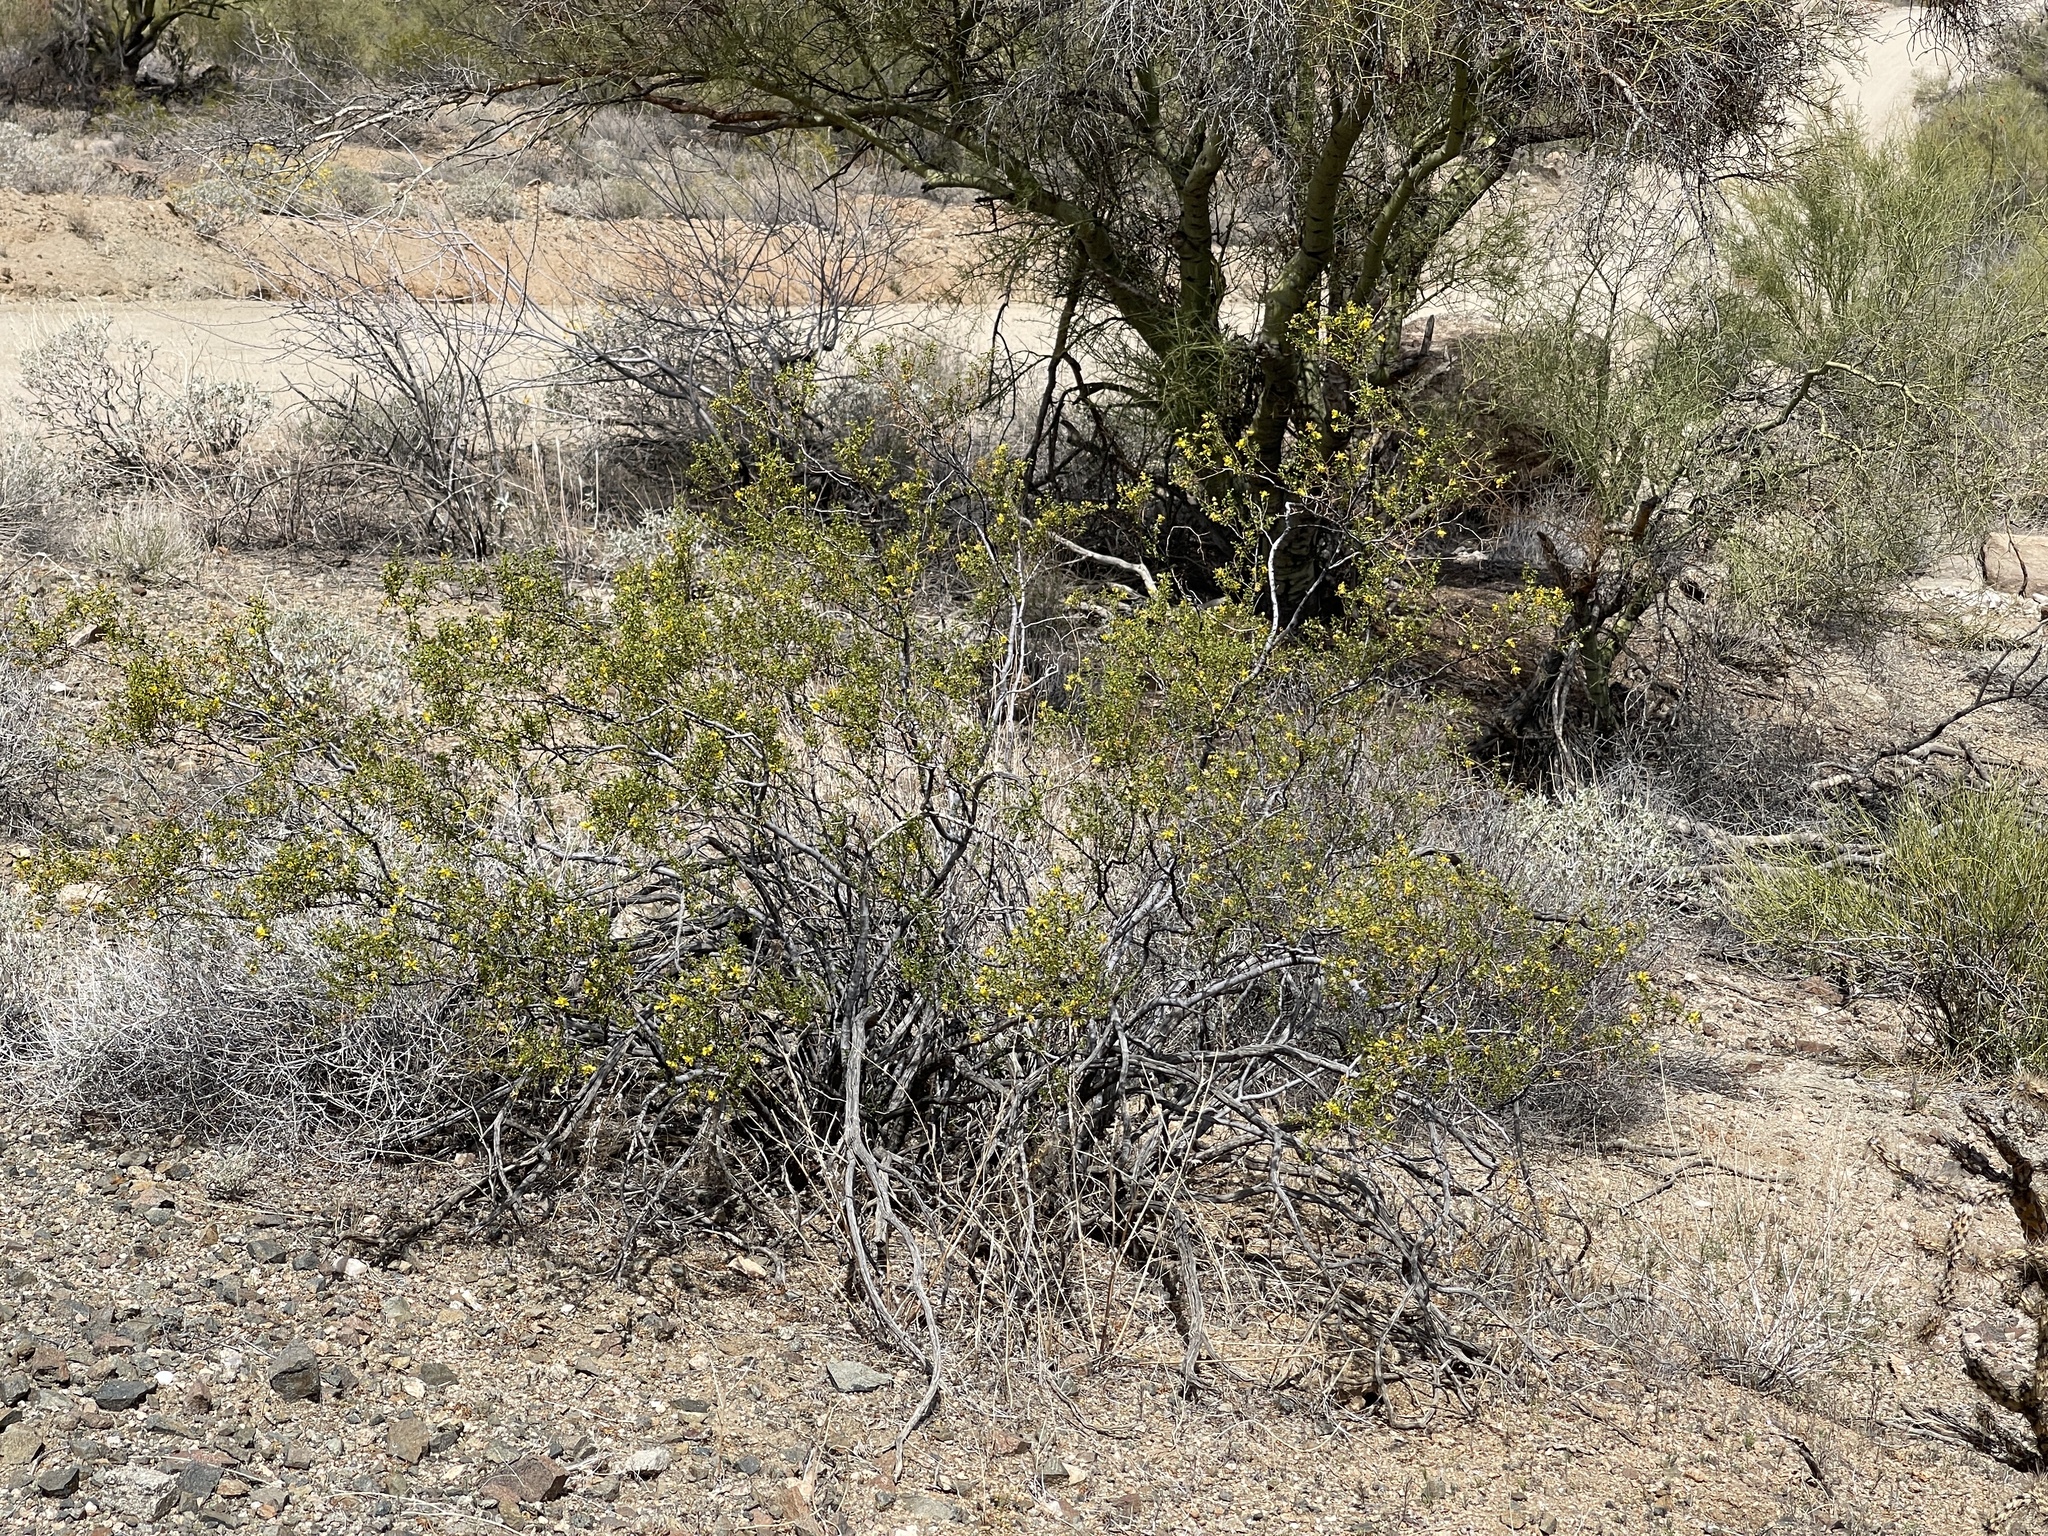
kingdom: Plantae
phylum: Tracheophyta
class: Magnoliopsida
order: Zygophyllales
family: Zygophyllaceae
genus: Larrea
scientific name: Larrea tridentata
